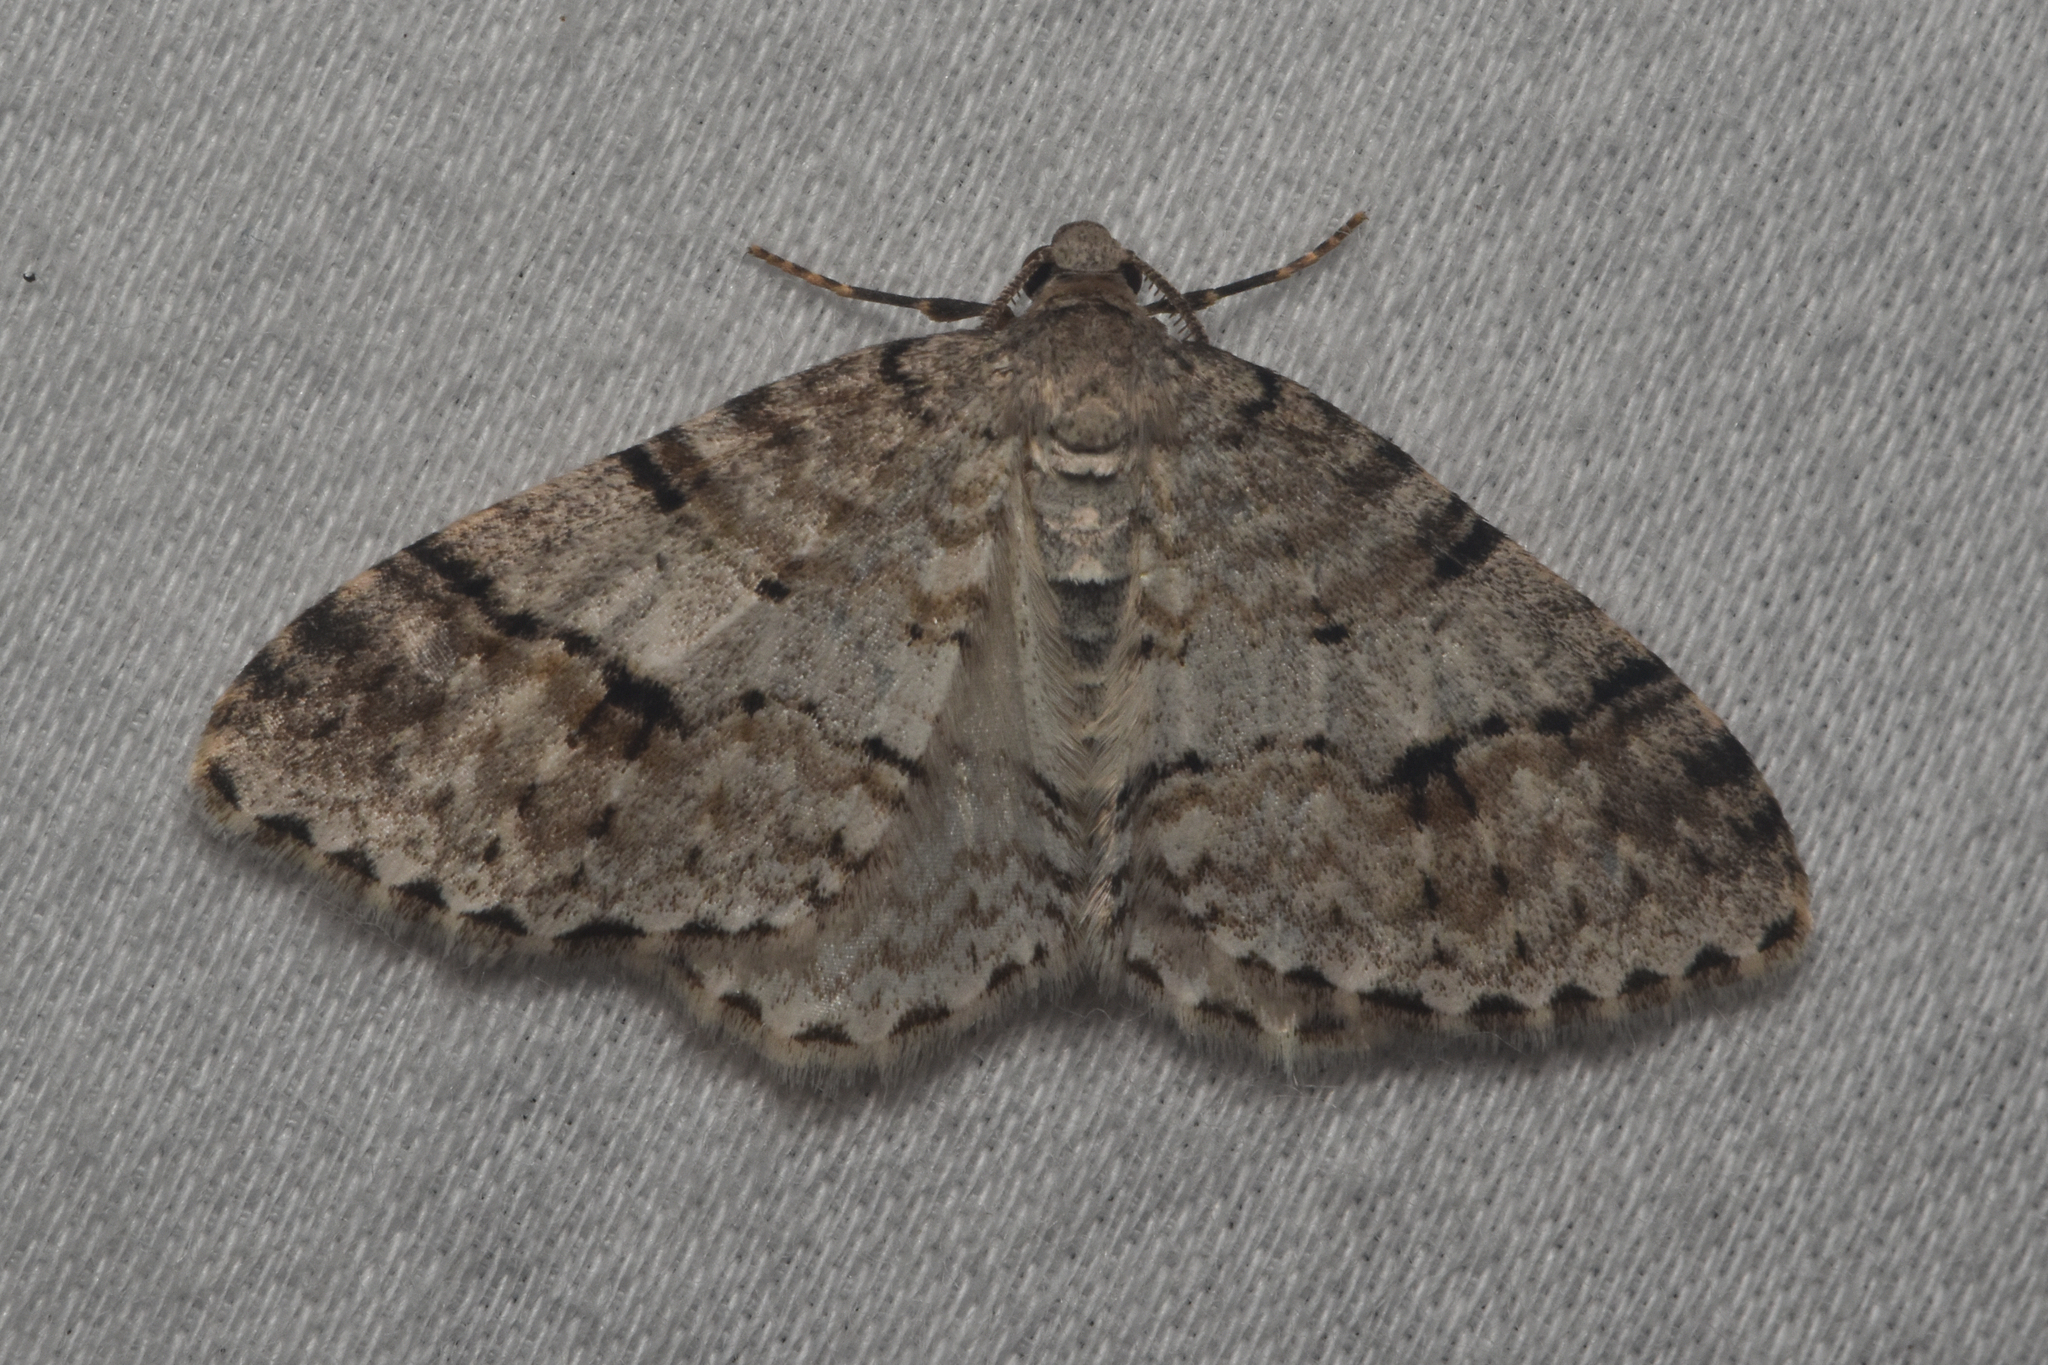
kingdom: Animalia
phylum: Arthropoda
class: Insecta
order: Lepidoptera
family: Geometridae
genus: Venusia
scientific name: Venusia cambrica
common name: Welsh wave
